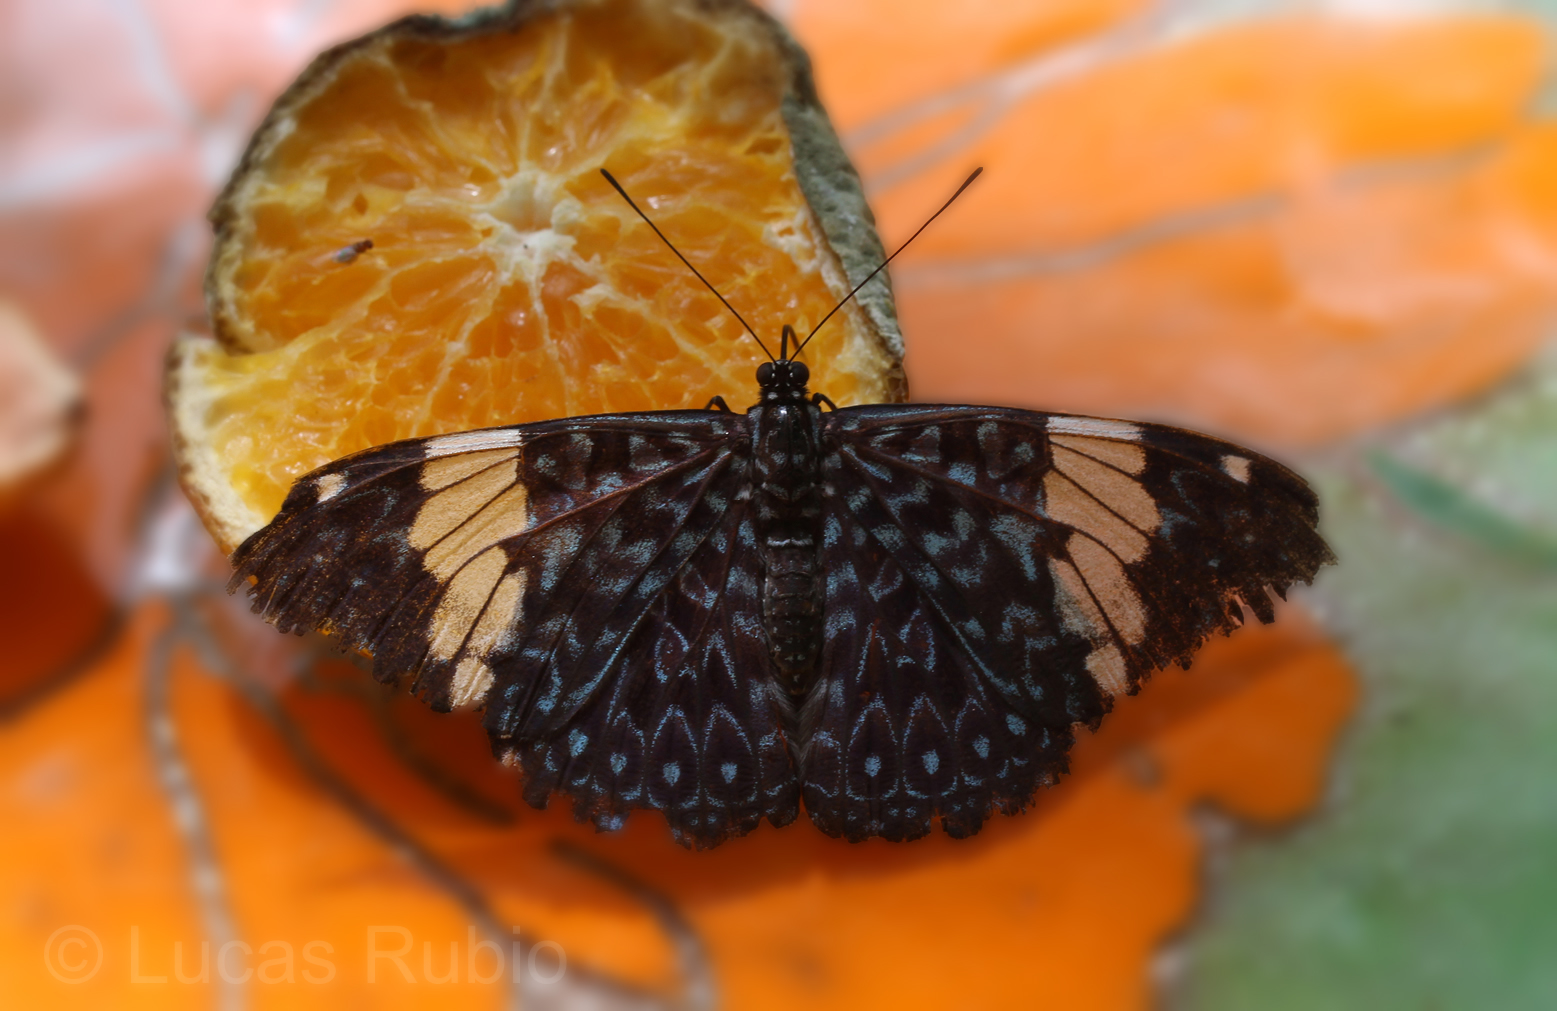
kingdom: Animalia
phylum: Arthropoda
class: Insecta
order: Lepidoptera
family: Nymphalidae
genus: Hamadryas
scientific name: Hamadryas amphinome
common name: Red cracker
